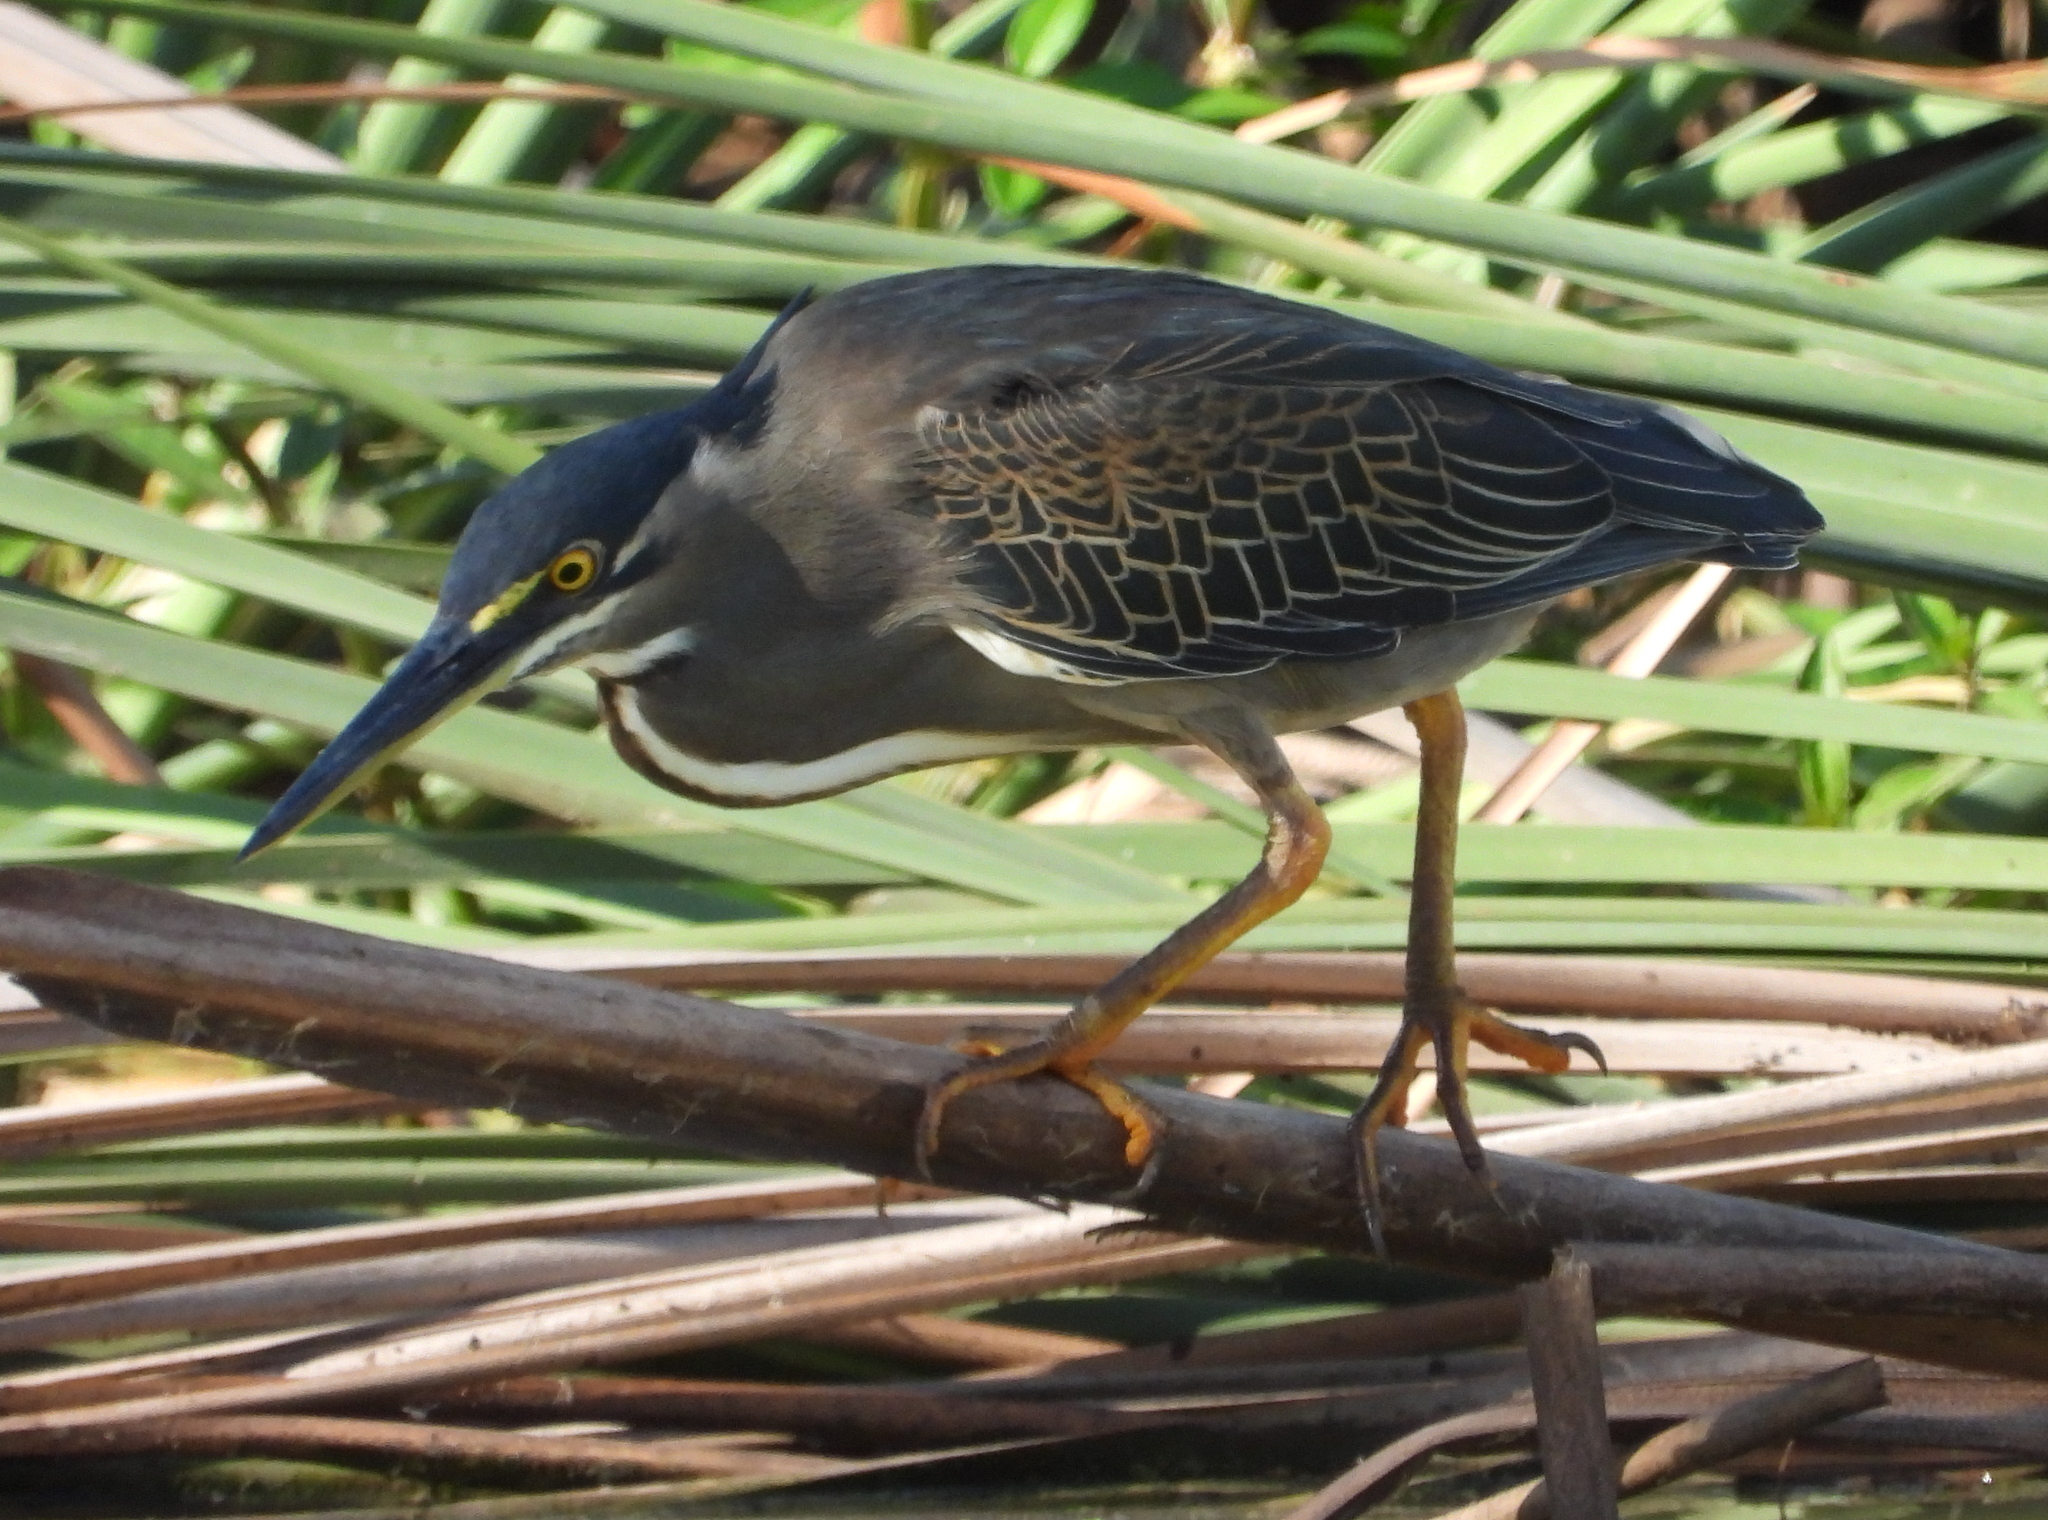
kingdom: Animalia
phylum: Chordata
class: Aves
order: Pelecaniformes
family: Ardeidae
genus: Butorides
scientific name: Butorides striata
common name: Striated heron
